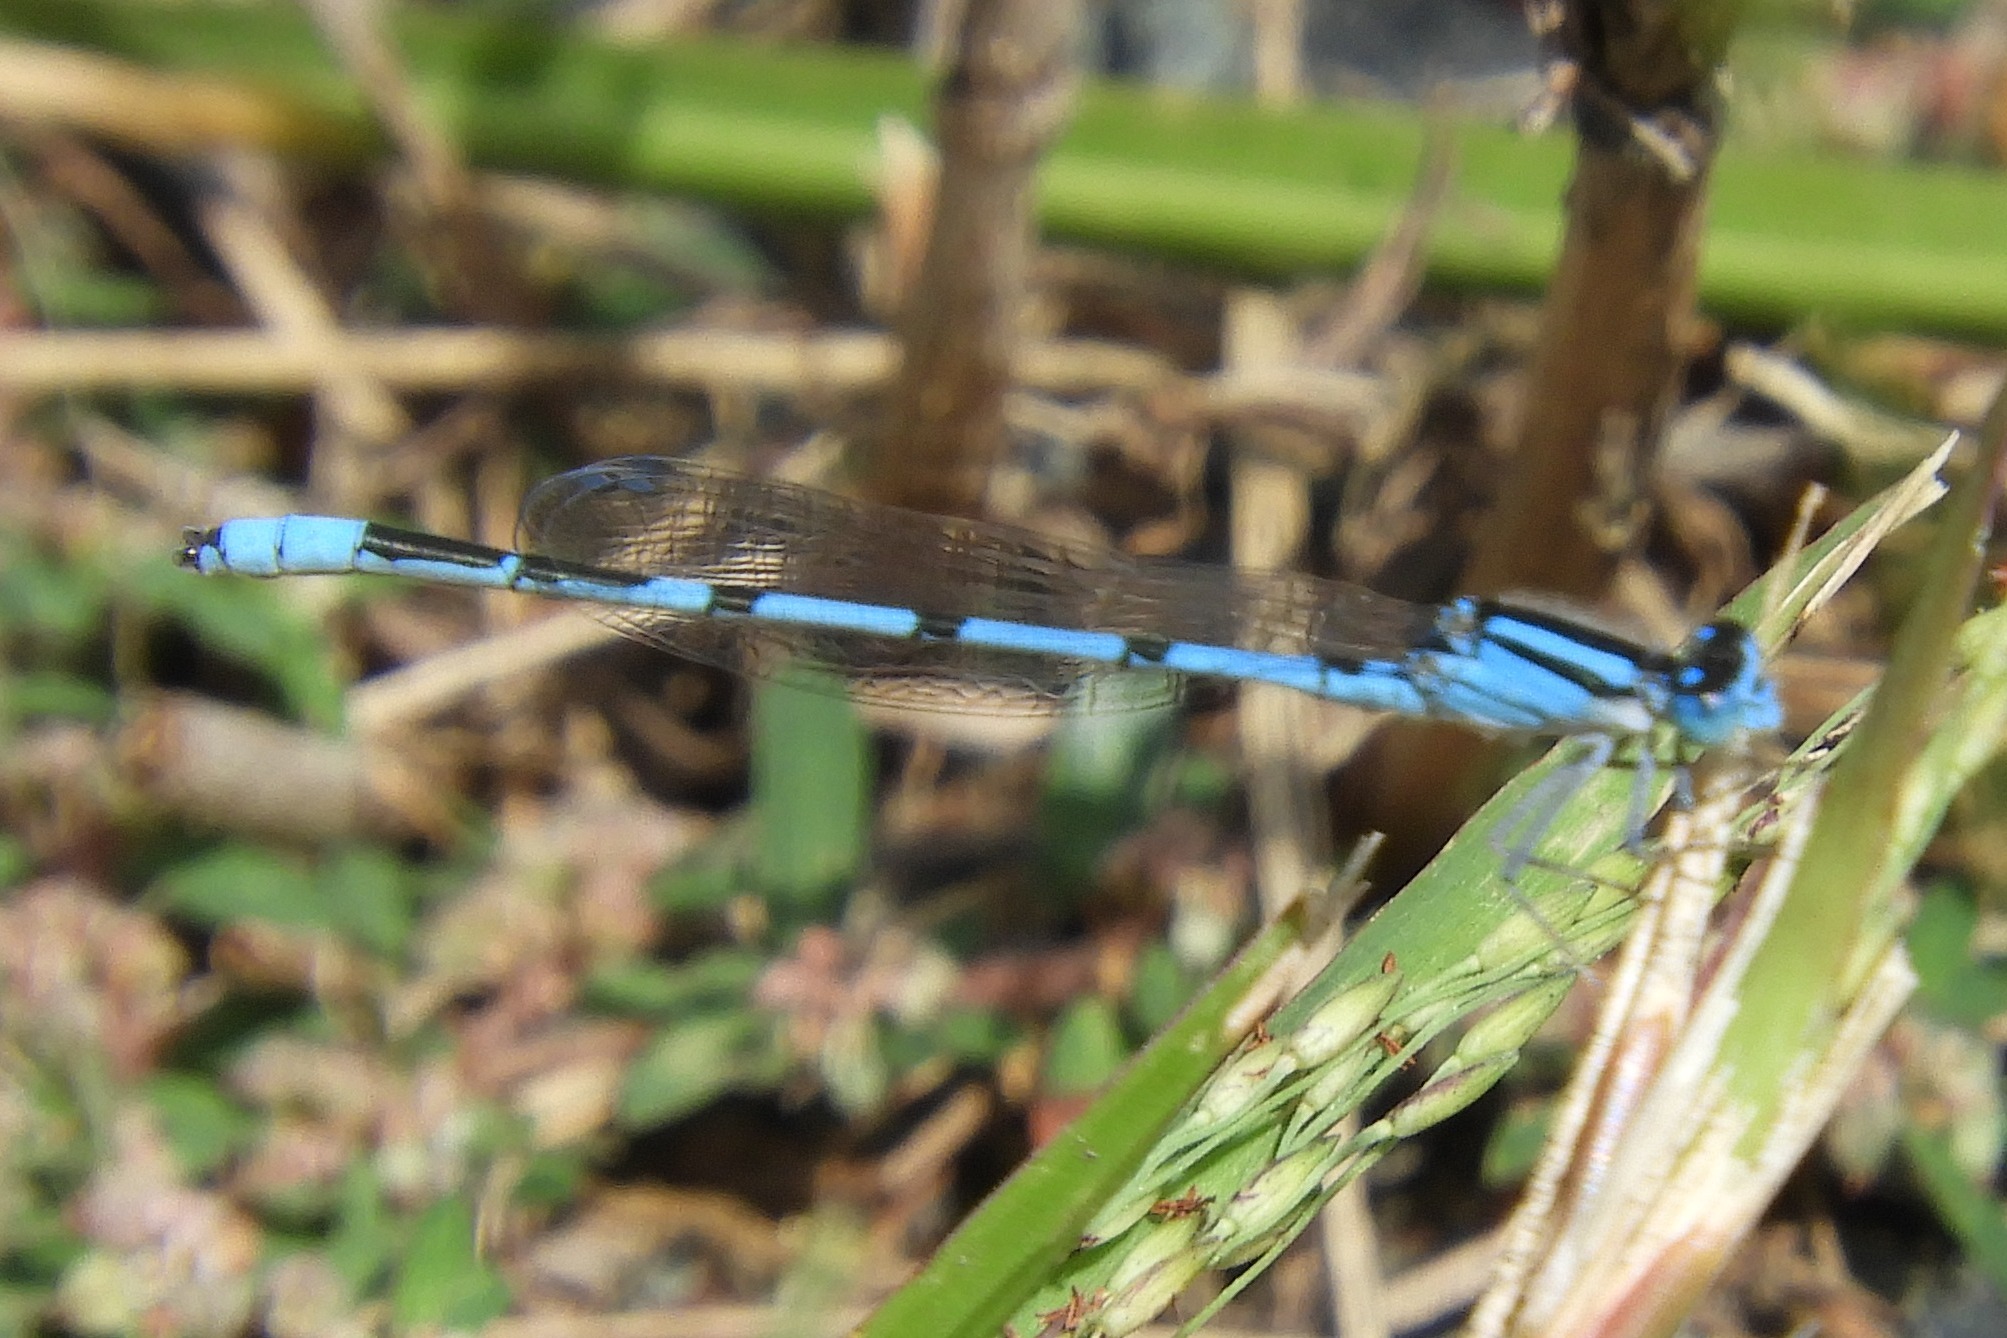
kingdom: Animalia
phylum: Arthropoda
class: Insecta
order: Odonata
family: Coenagrionidae
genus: Enallagma
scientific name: Enallagma civile
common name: Damselfly
